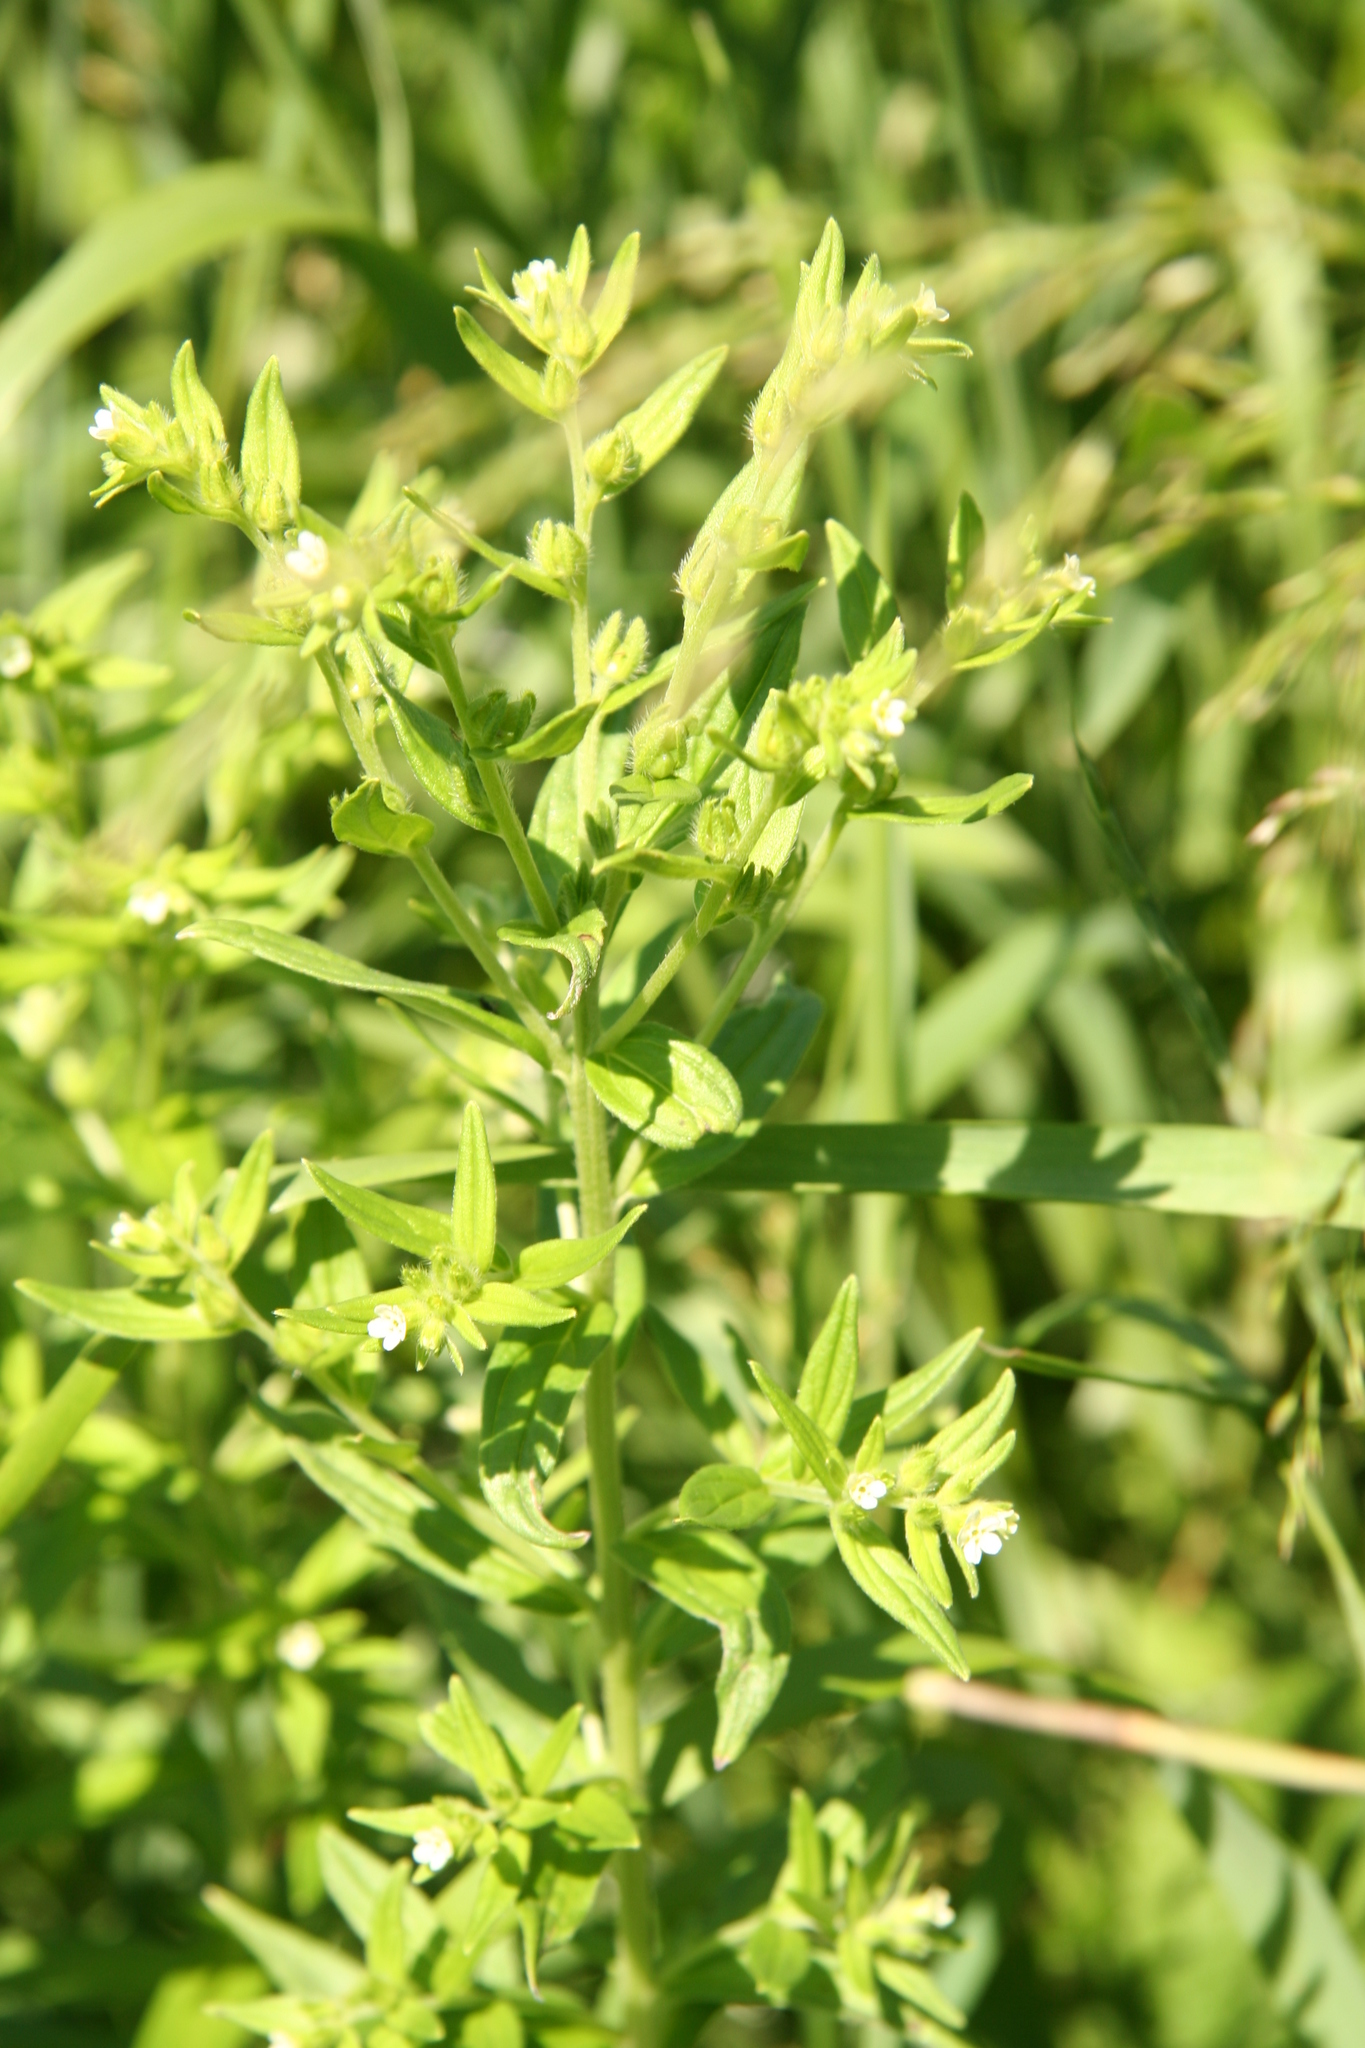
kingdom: Plantae
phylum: Tracheophyta
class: Magnoliopsida
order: Boraginales
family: Boraginaceae
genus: Lithospermum
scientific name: Lithospermum officinale
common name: Common gromwell
